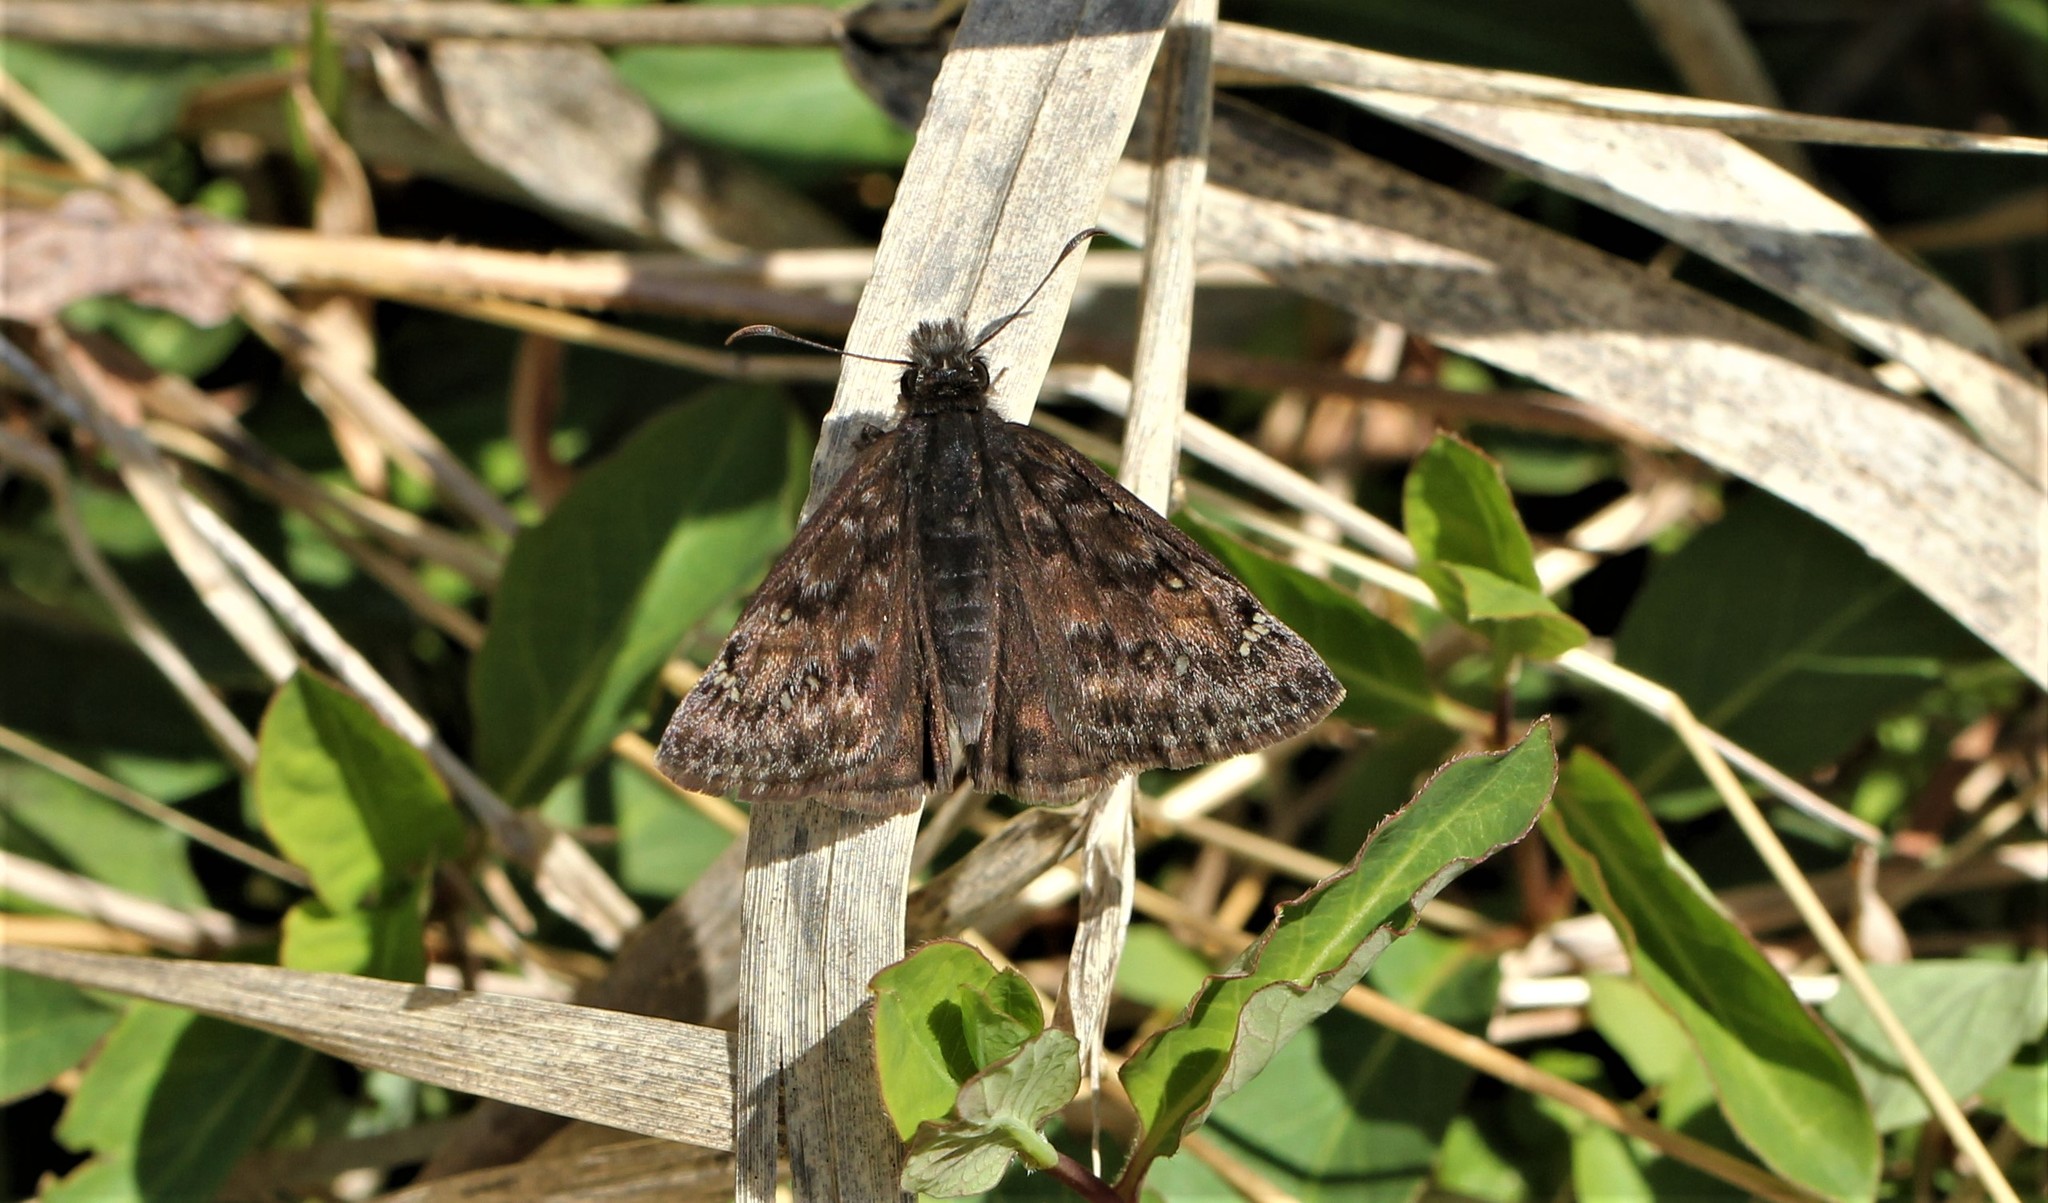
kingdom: Animalia
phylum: Arthropoda
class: Insecta
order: Lepidoptera
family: Hesperiidae
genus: Erynnis
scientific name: Erynnis juvenalis
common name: Juvenal's duskywing
